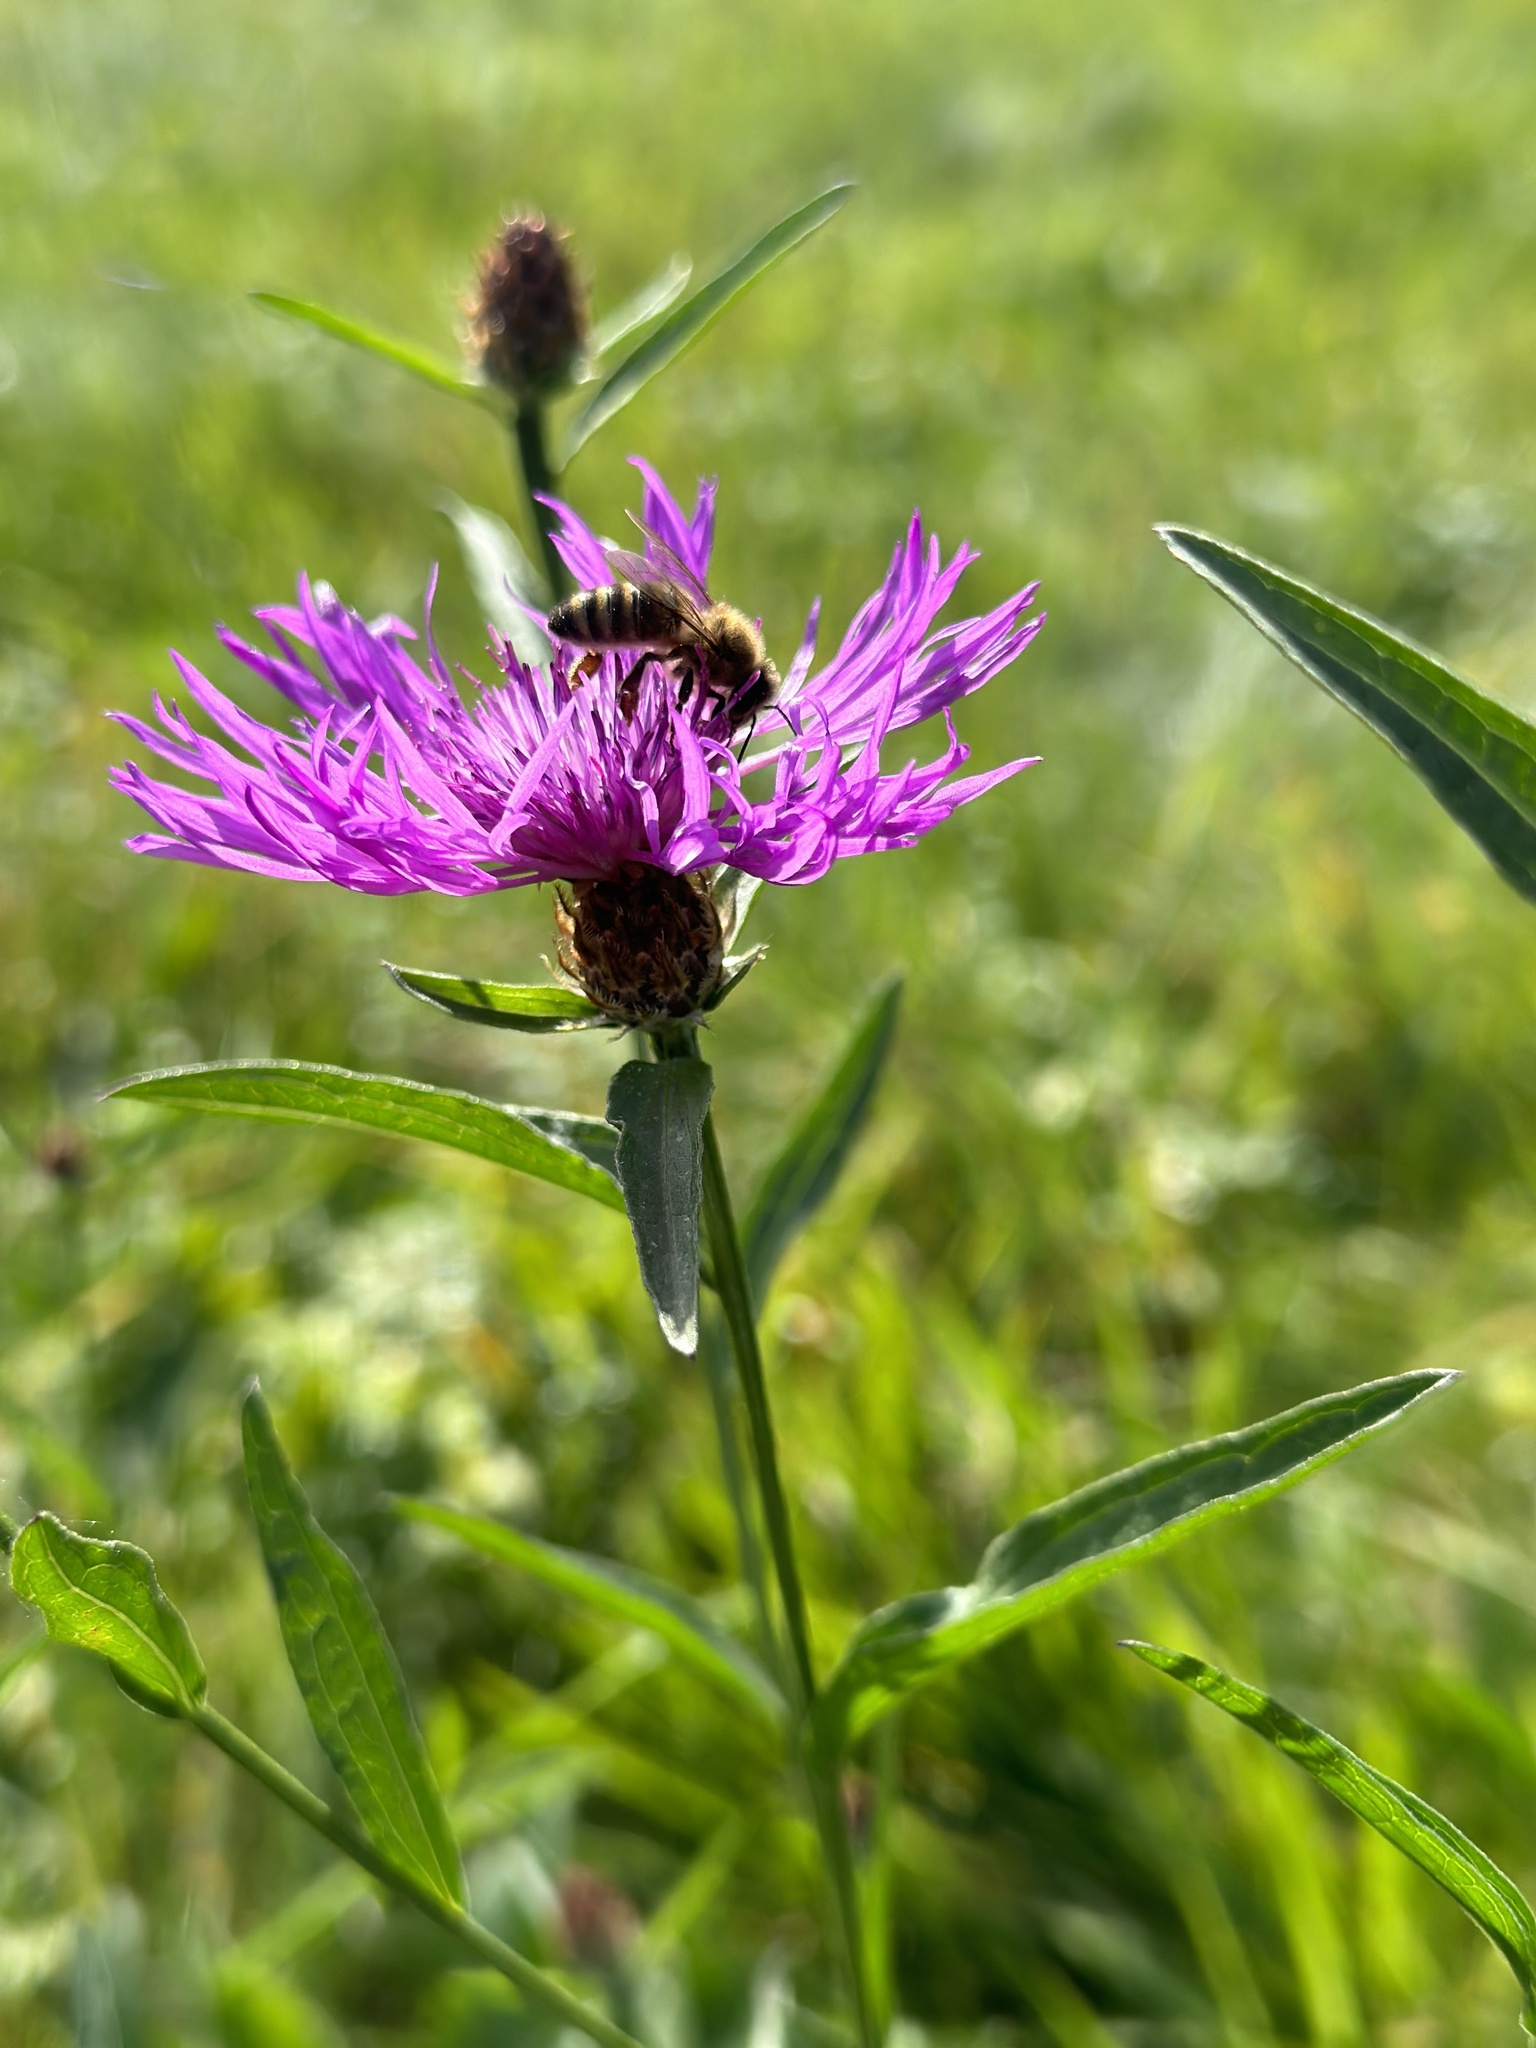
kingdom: Plantae
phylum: Tracheophyta
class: Magnoliopsida
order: Asterales
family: Asteraceae
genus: Centaurea
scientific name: Centaurea jacea
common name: Brown knapweed
